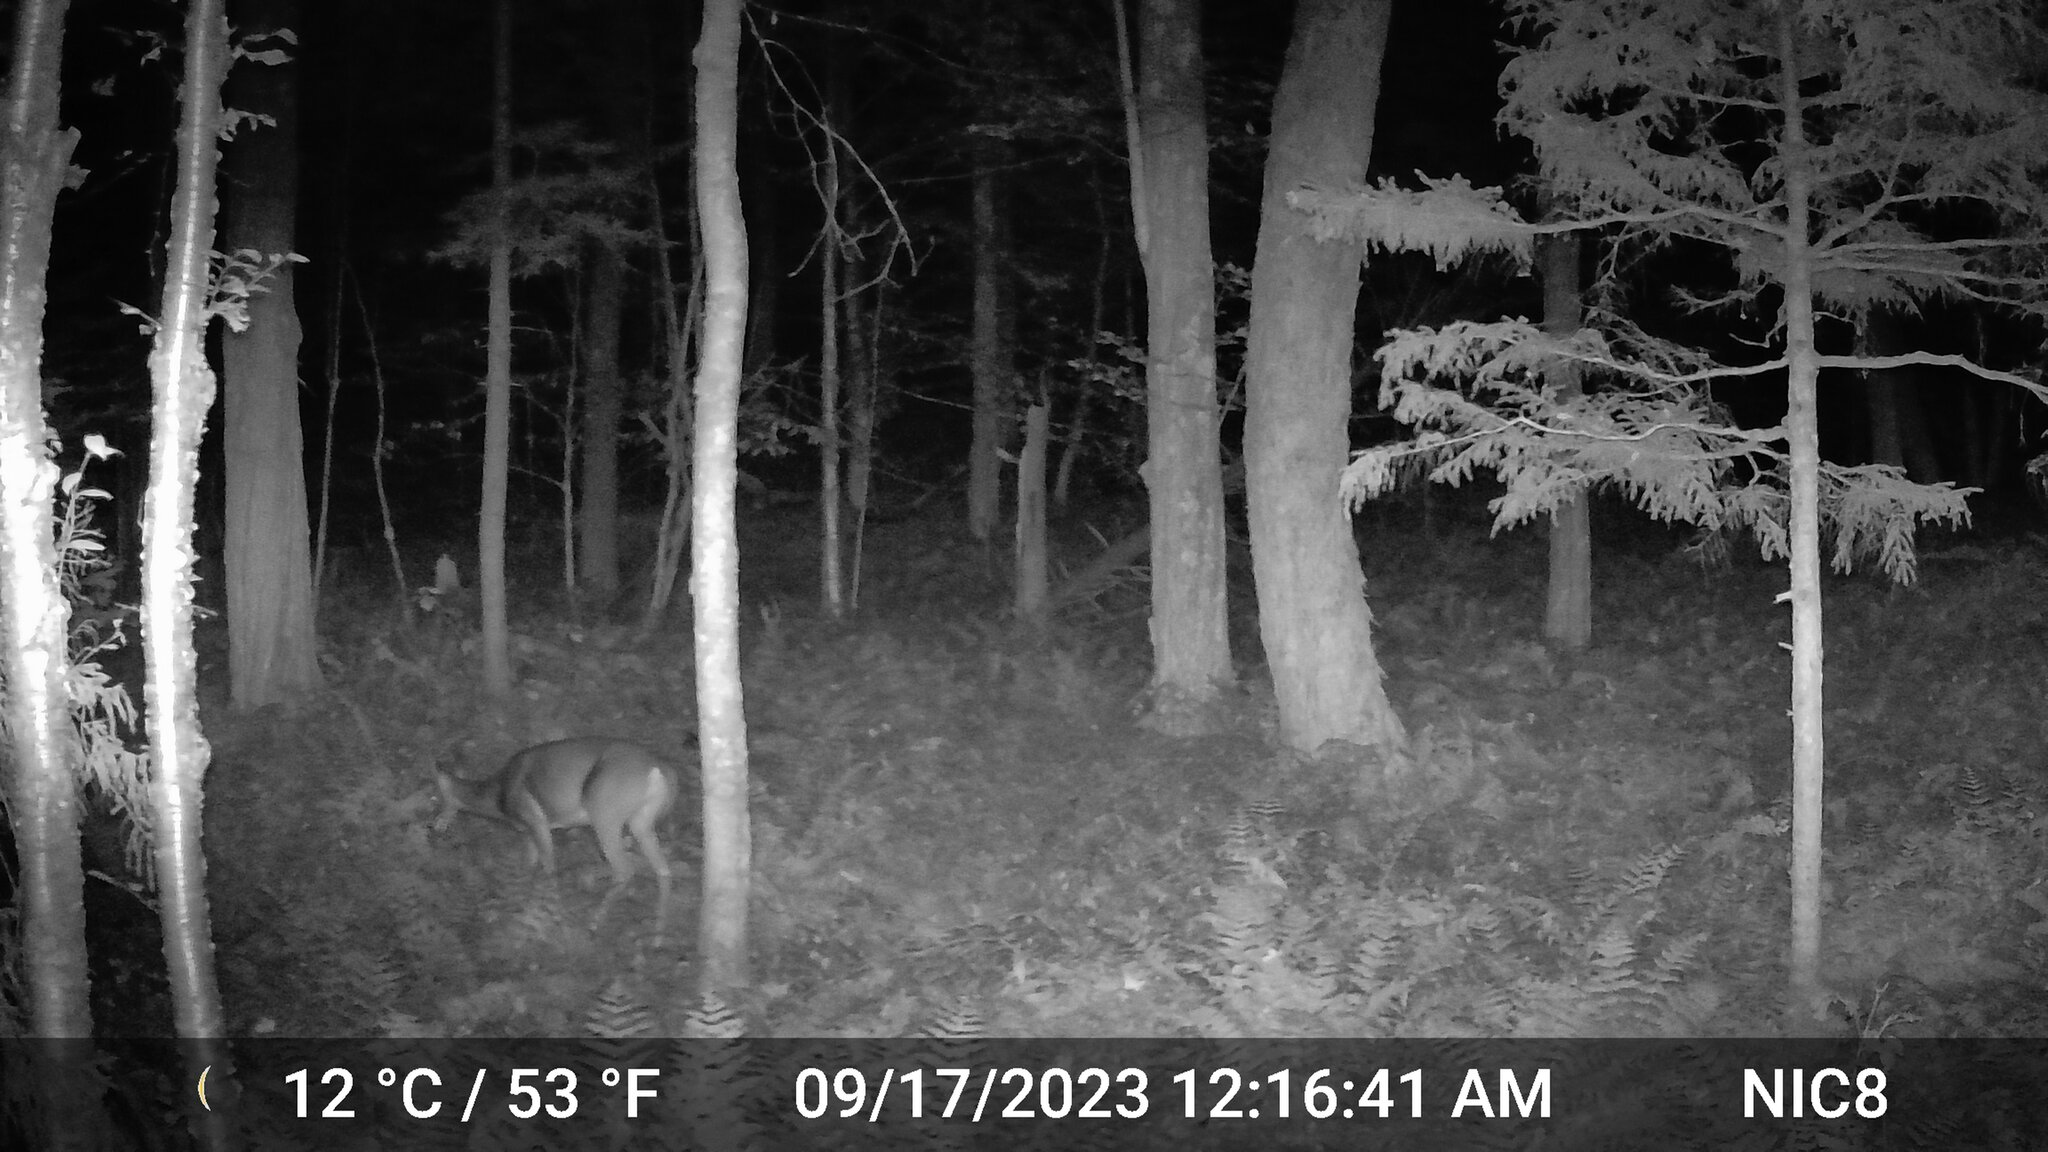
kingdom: Animalia
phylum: Chordata
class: Mammalia
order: Artiodactyla
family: Cervidae
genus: Odocoileus
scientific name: Odocoileus virginianus
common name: White-tailed deer
